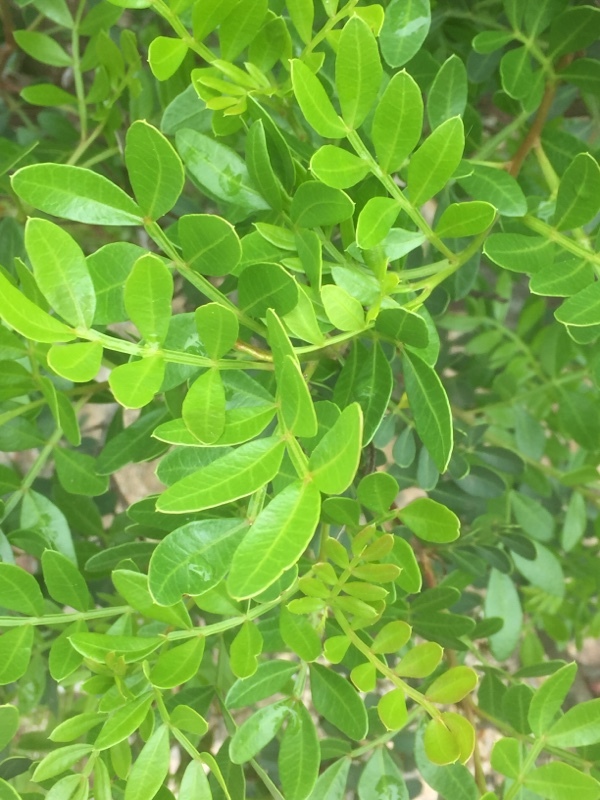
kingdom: Plantae
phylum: Tracheophyta
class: Magnoliopsida
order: Sapindales
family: Anacardiaceae
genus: Pistacia
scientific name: Pistacia lentiscus
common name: Lentisk
